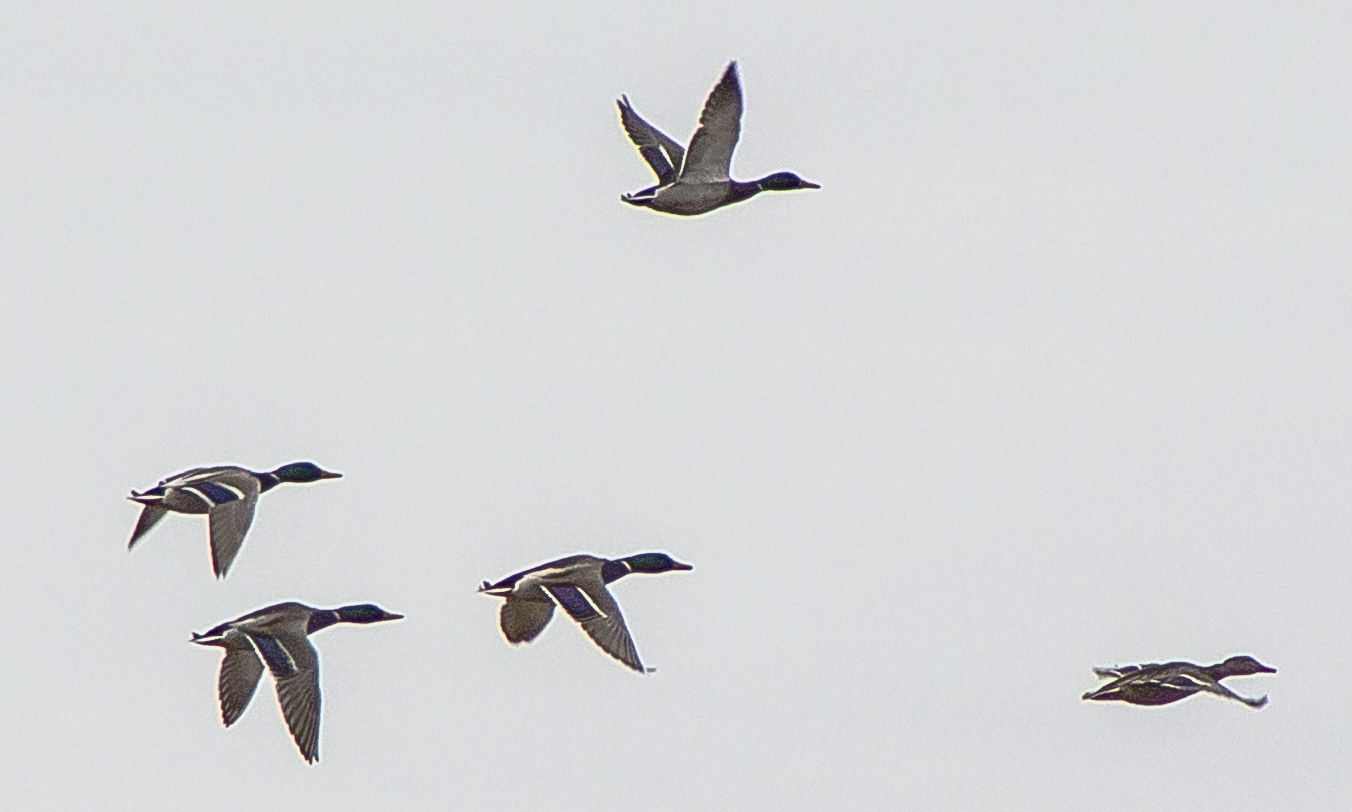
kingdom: Animalia
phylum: Chordata
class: Aves
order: Anseriformes
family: Anatidae
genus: Anas
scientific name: Anas platyrhynchos
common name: Mallard
